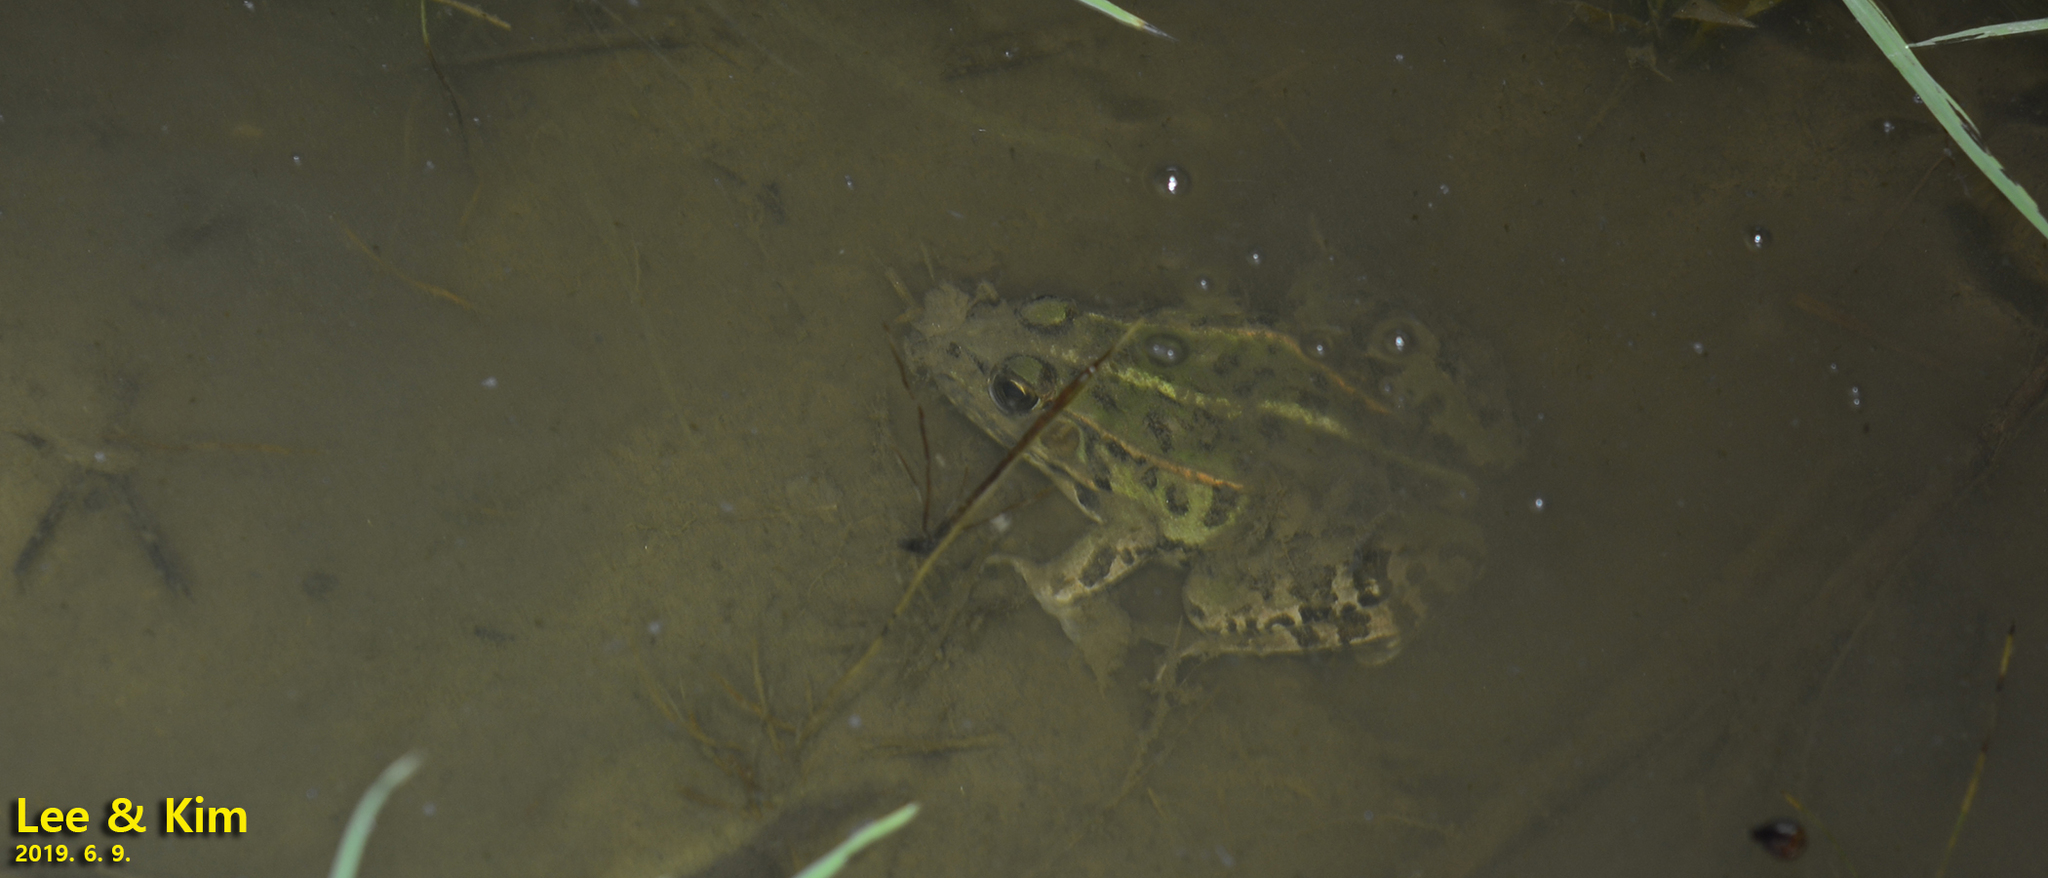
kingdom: Animalia
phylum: Chordata
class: Amphibia
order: Anura
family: Ranidae
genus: Pelophylax
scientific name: Pelophylax nigromaculatus
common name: Black-spotted pond frog
